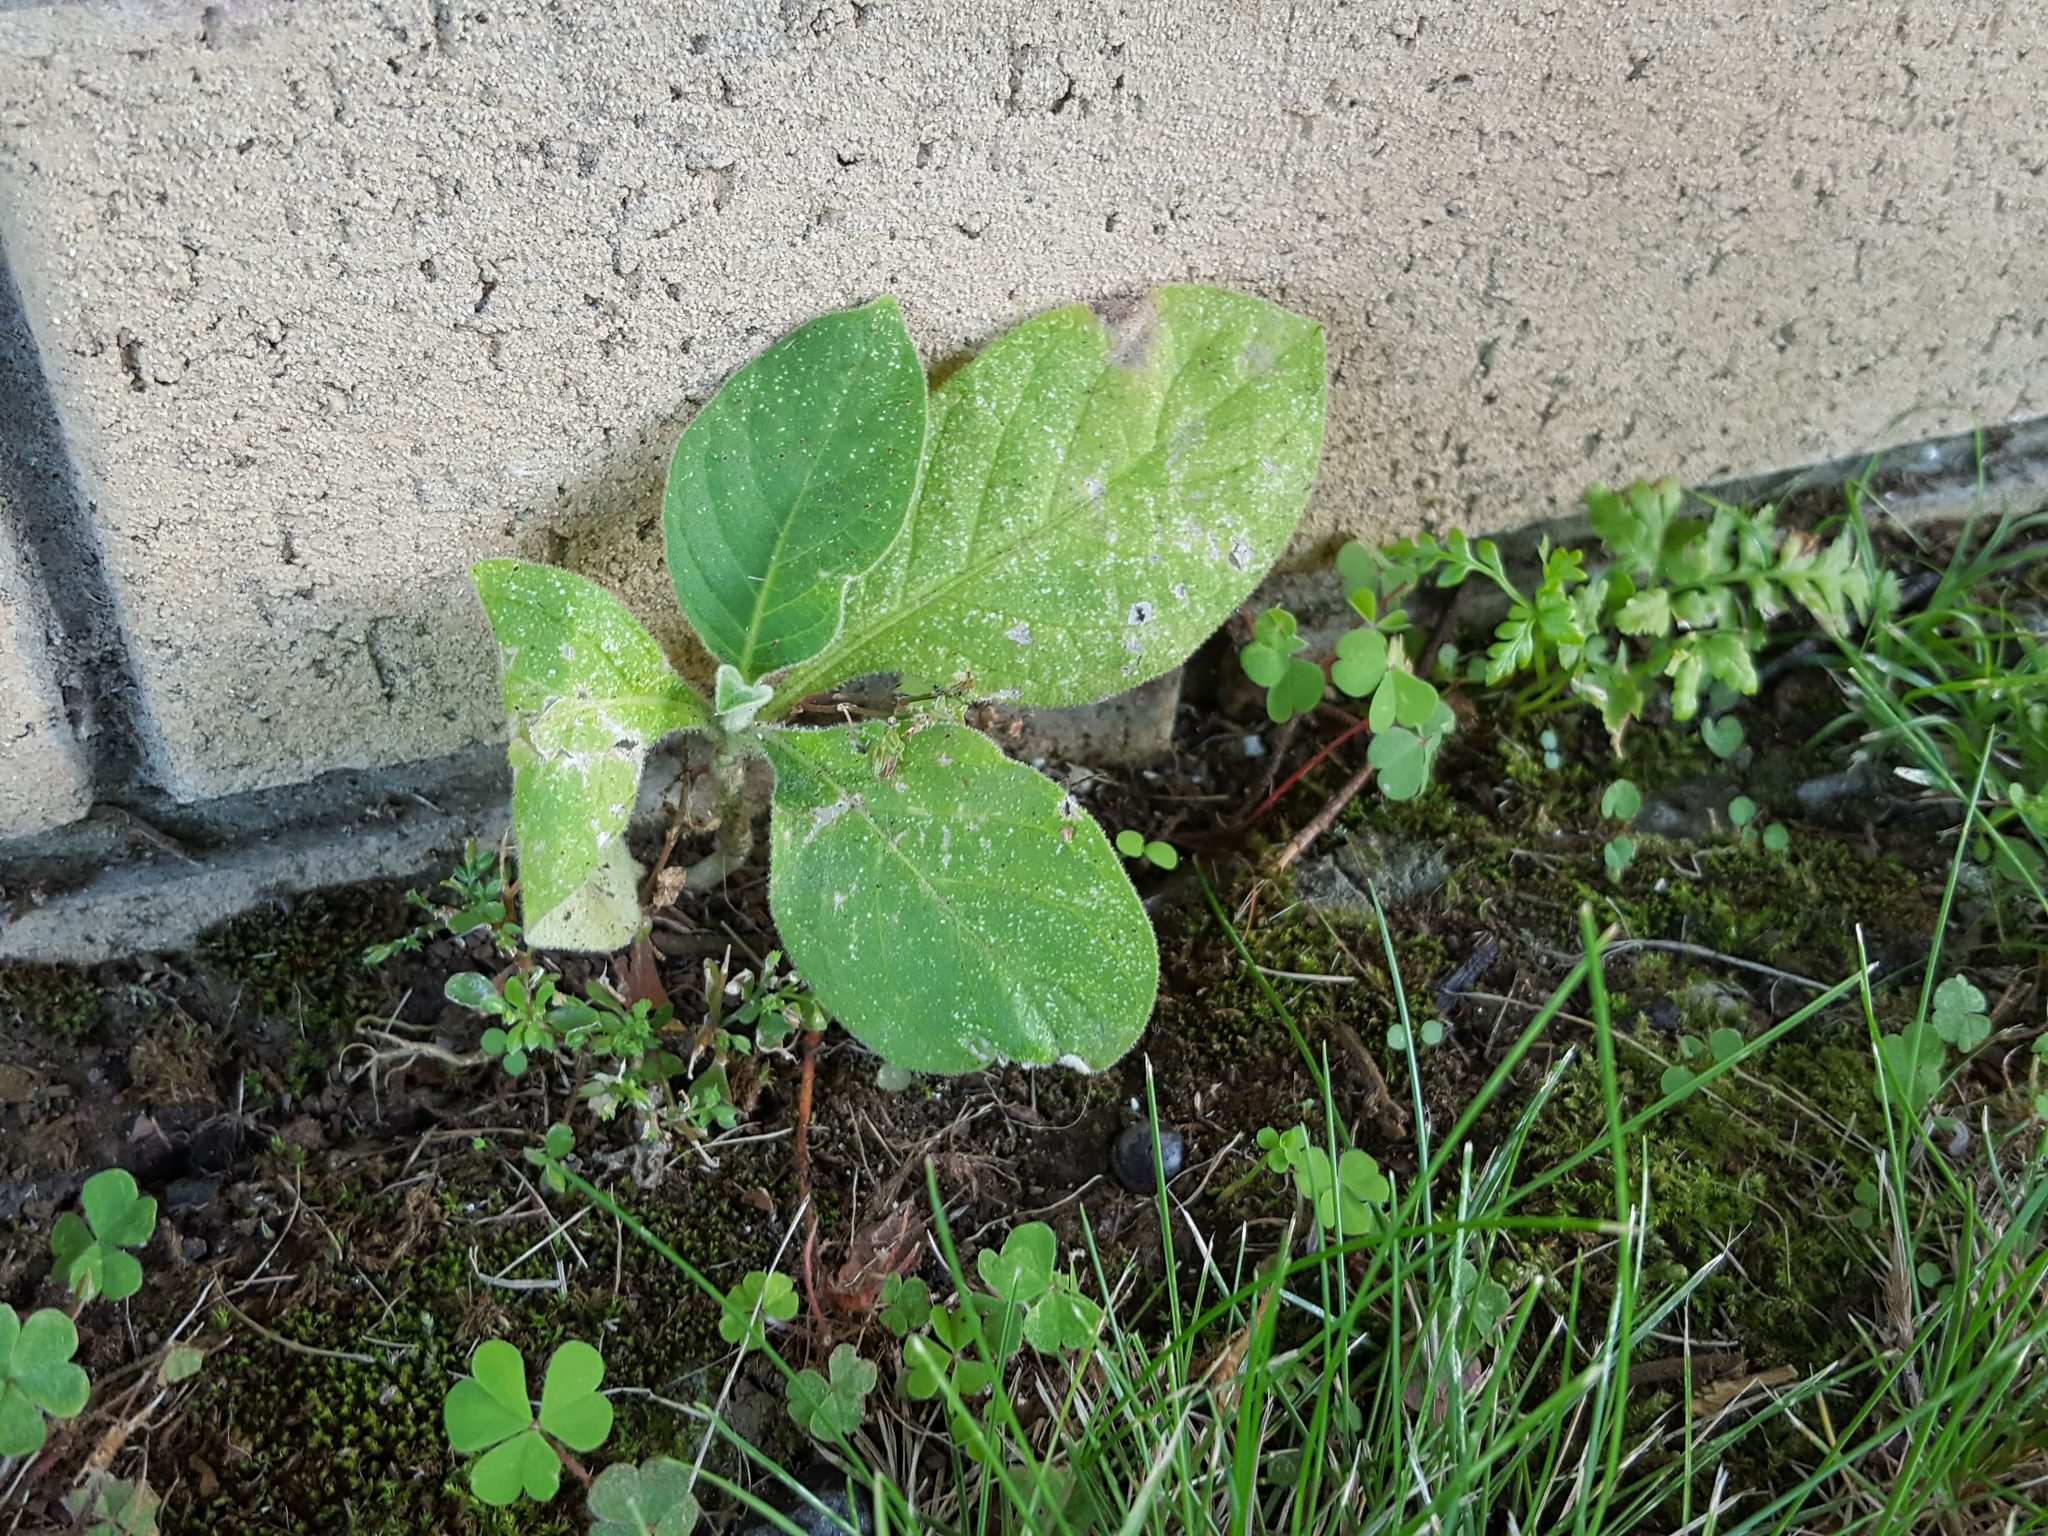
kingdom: Plantae
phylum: Tracheophyta
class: Magnoliopsida
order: Solanales
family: Solanaceae
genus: Solanum
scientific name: Solanum mauritianum
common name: Earleaf nightshade
